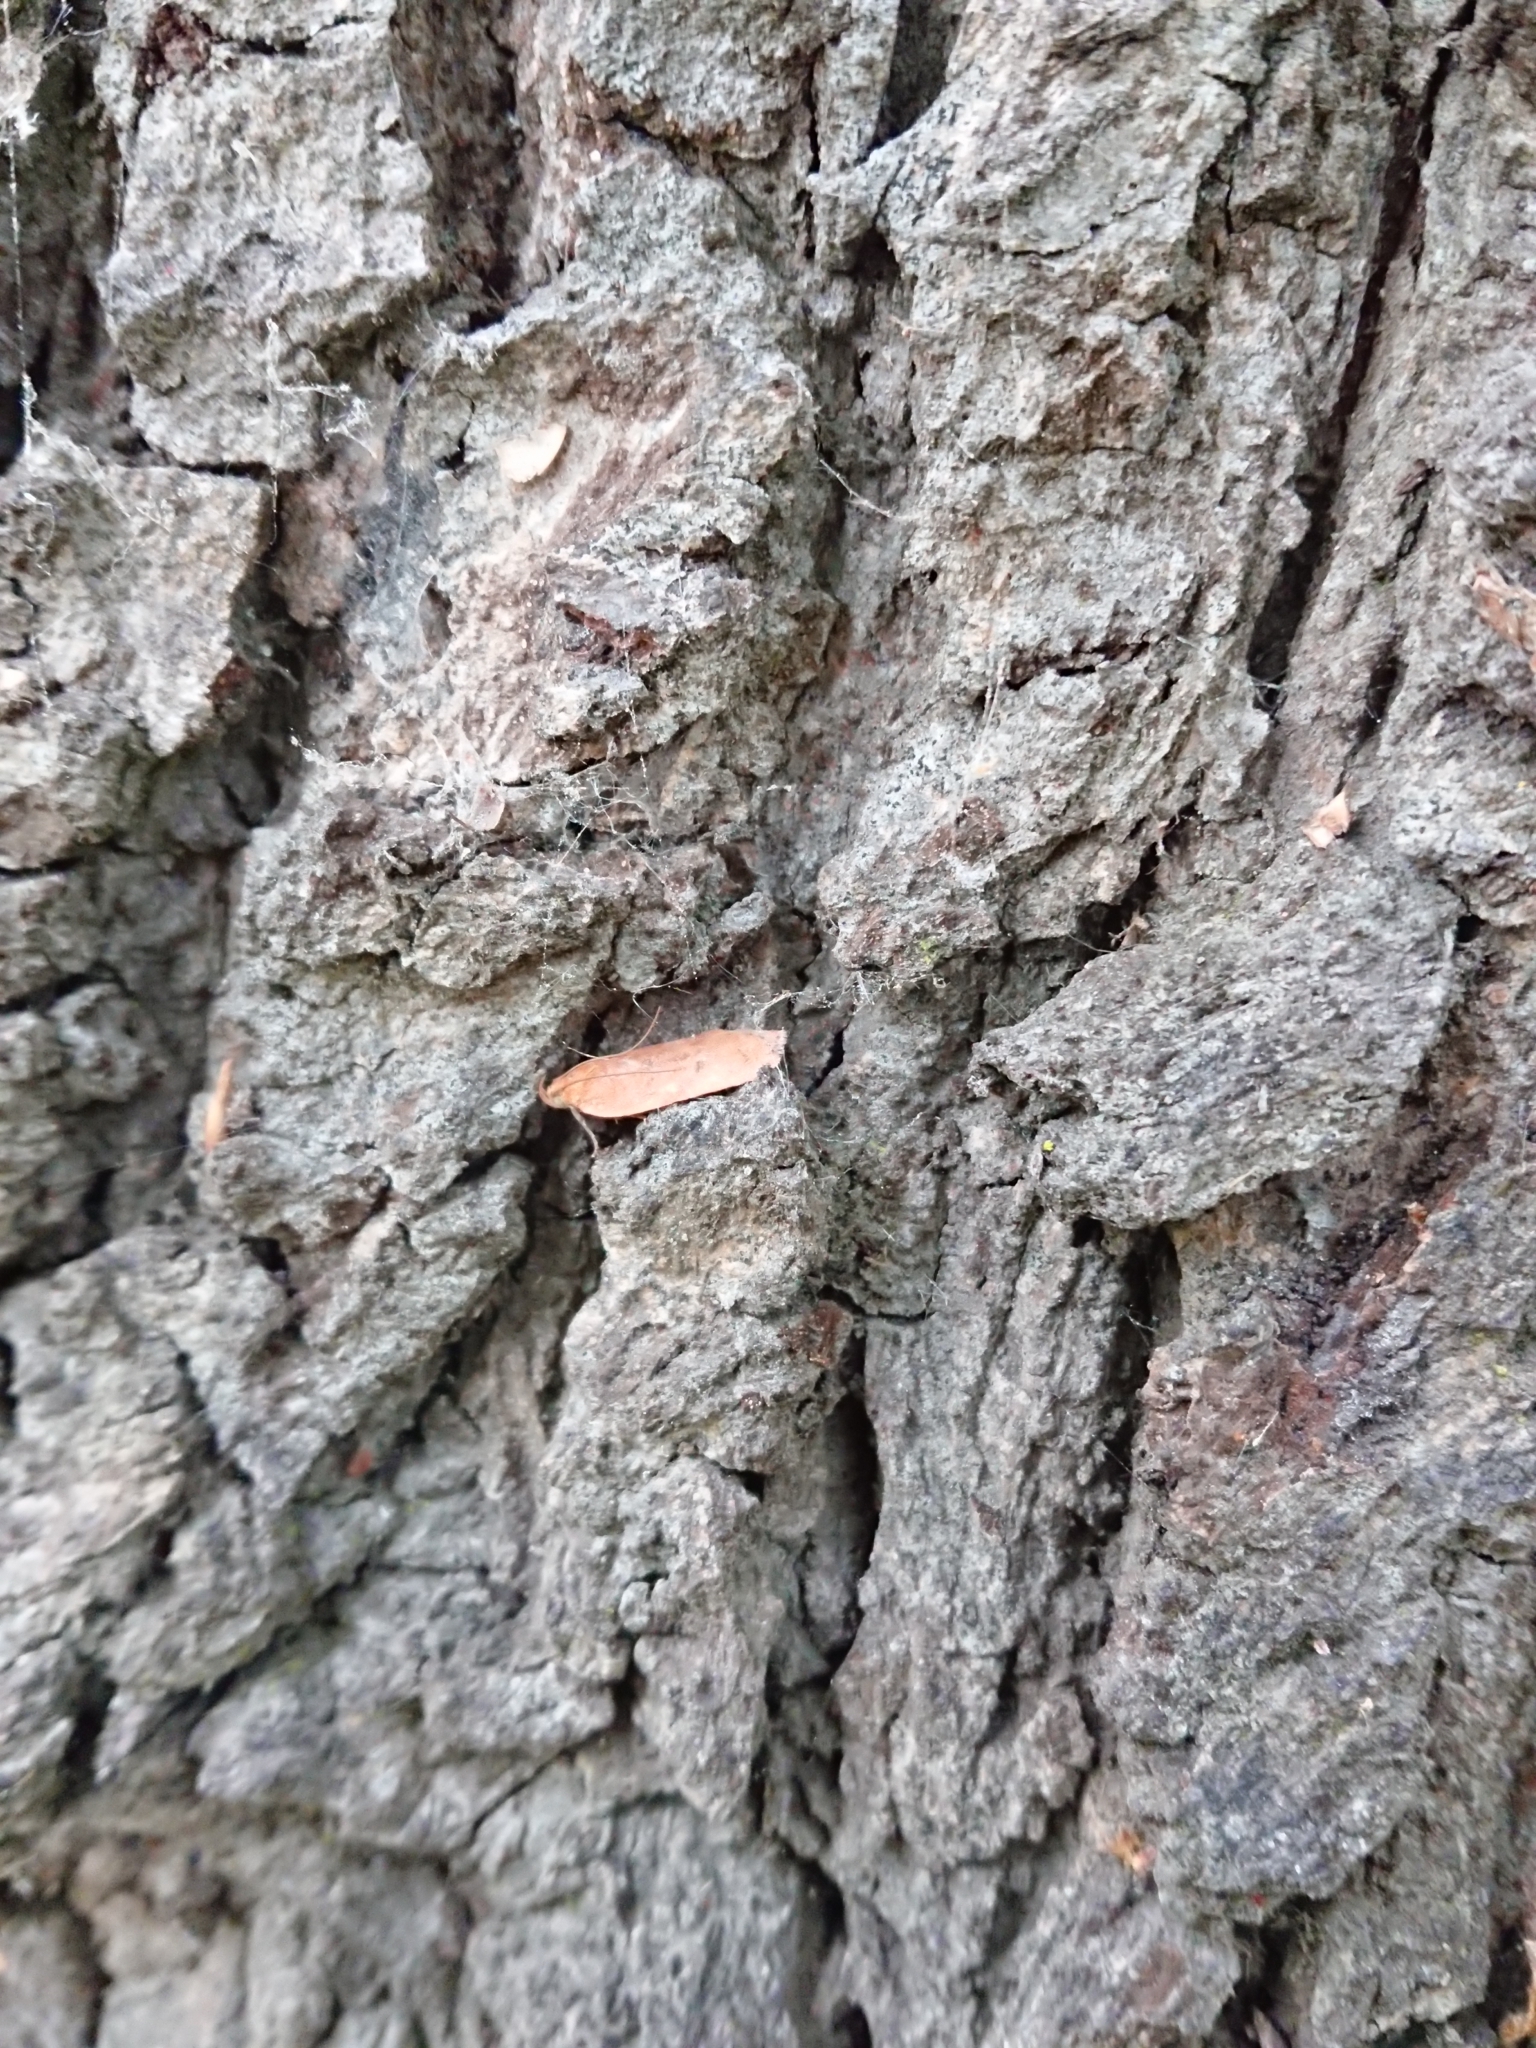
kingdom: Animalia
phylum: Arthropoda
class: Insecta
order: Lepidoptera
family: Depressariidae
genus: Phaeosaces
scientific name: Phaeosaces coarctatella
